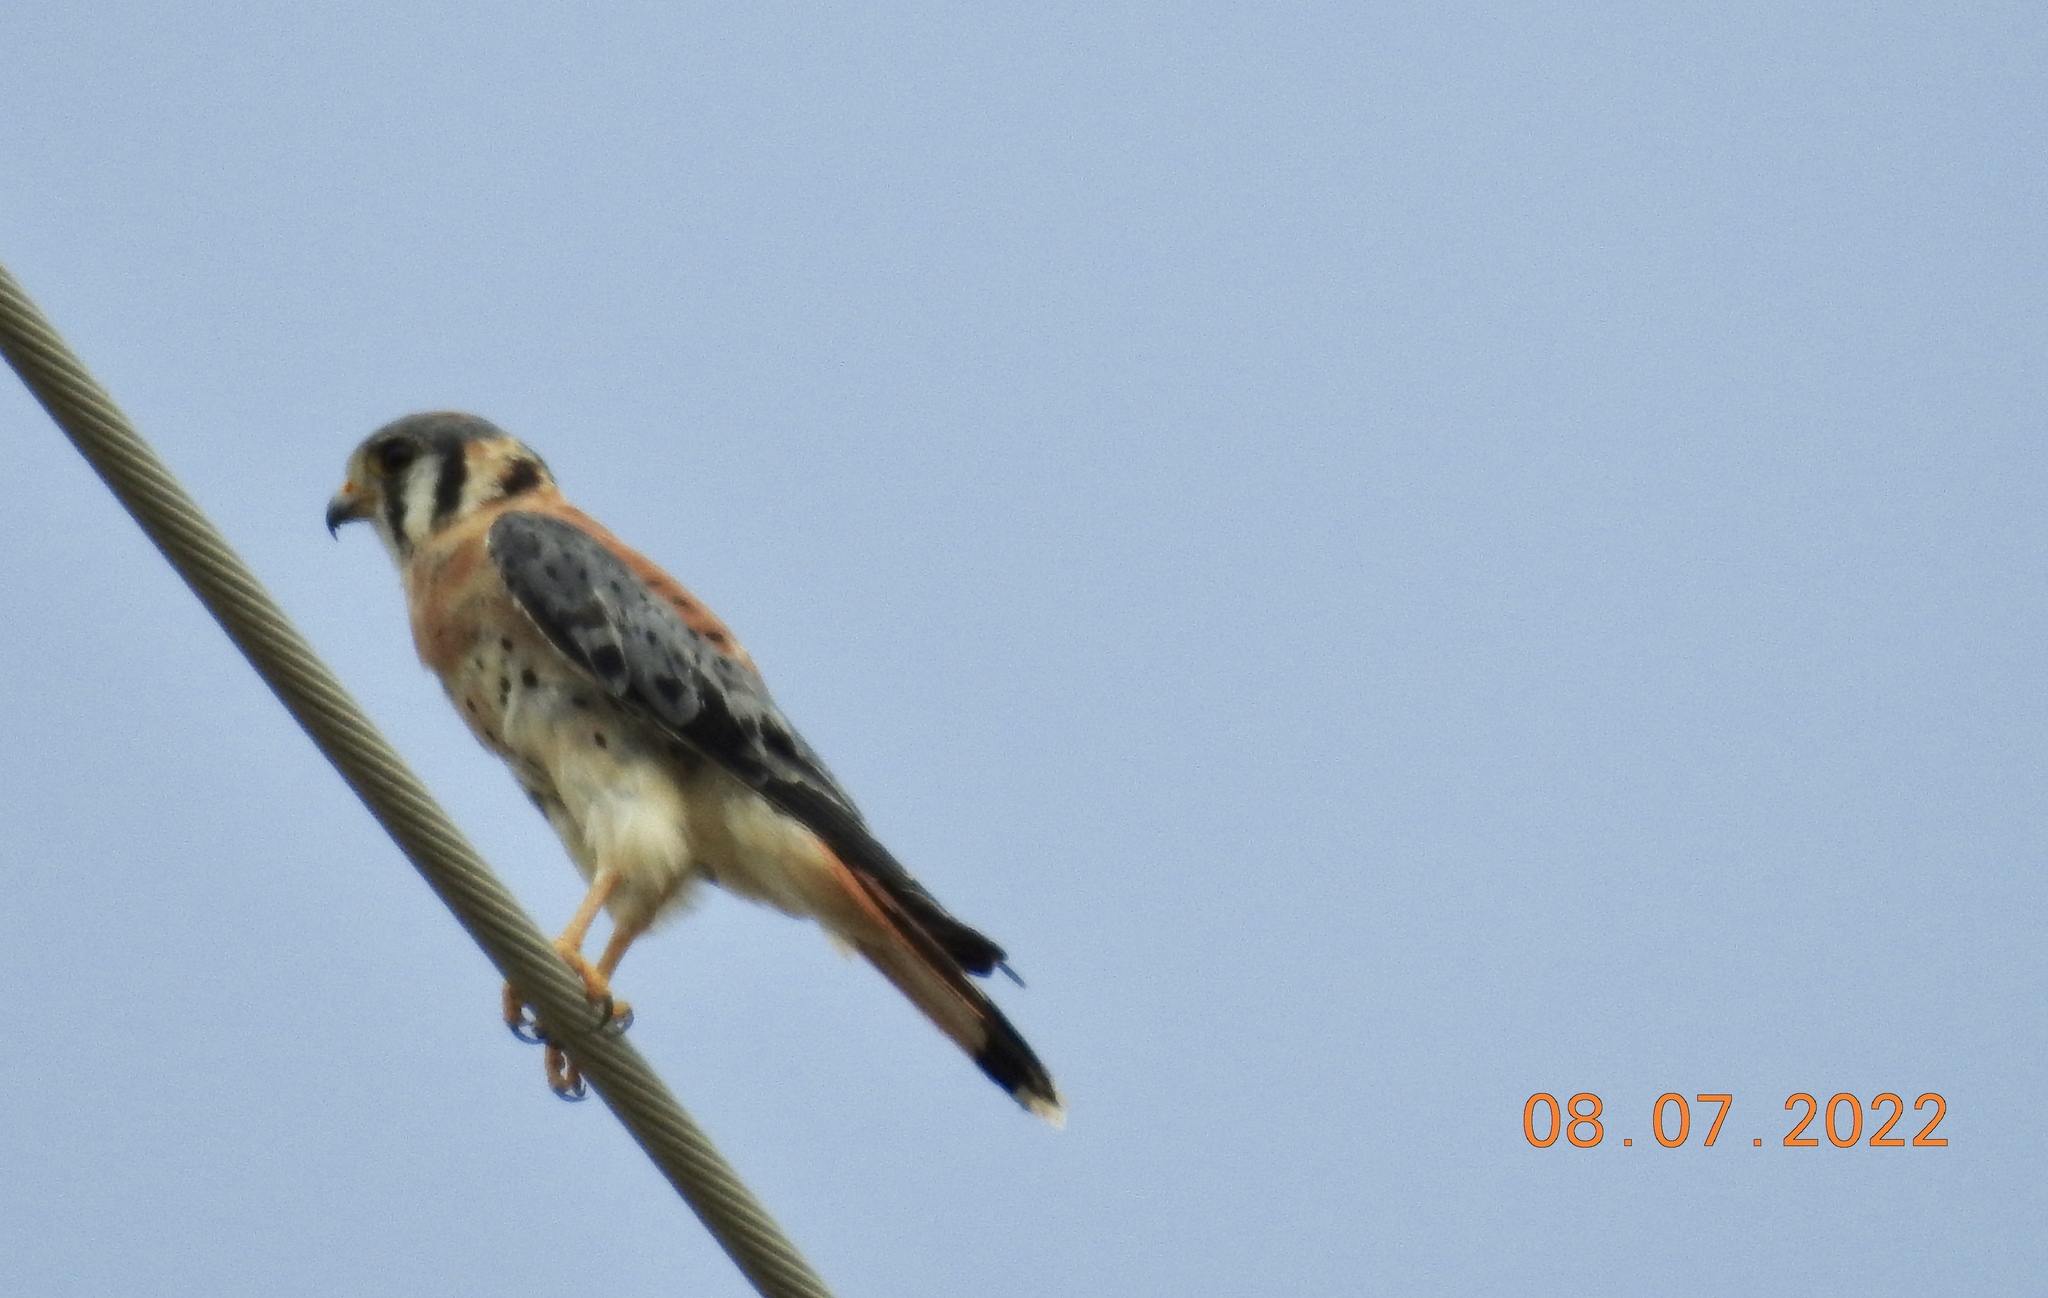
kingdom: Animalia
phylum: Chordata
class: Aves
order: Falconiformes
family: Falconidae
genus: Falco
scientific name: Falco sparverius
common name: American kestrel
